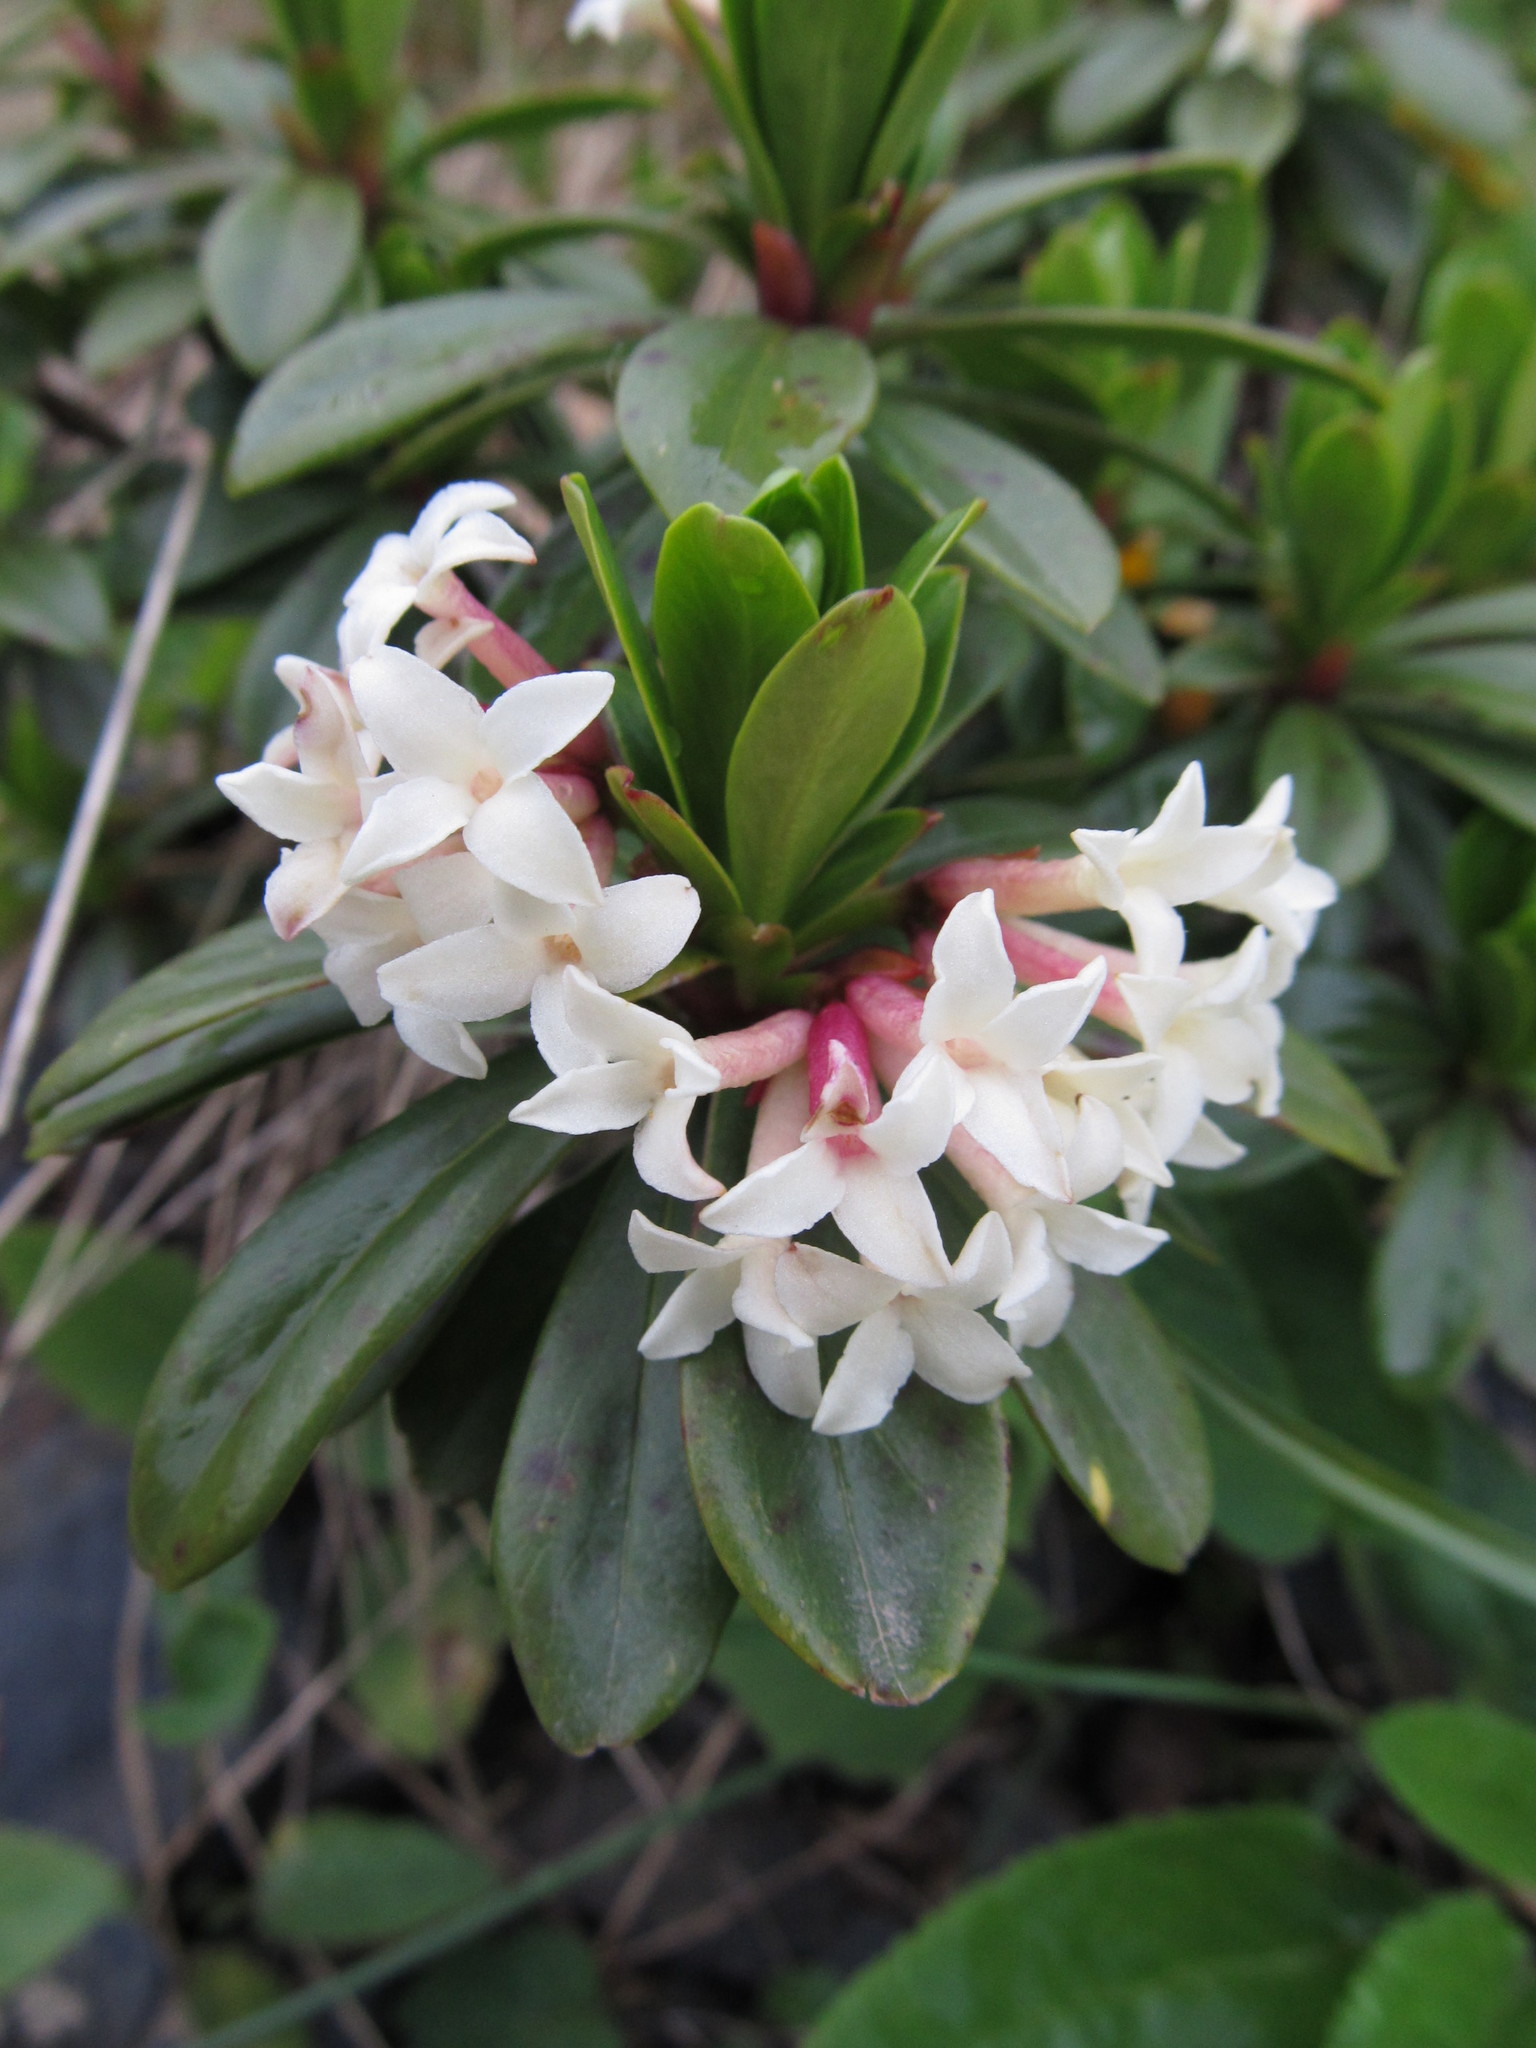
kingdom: Plantae
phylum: Tracheophyta
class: Magnoliopsida
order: Malvales
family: Thymelaeaceae
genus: Daphne
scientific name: Daphne glomerata
